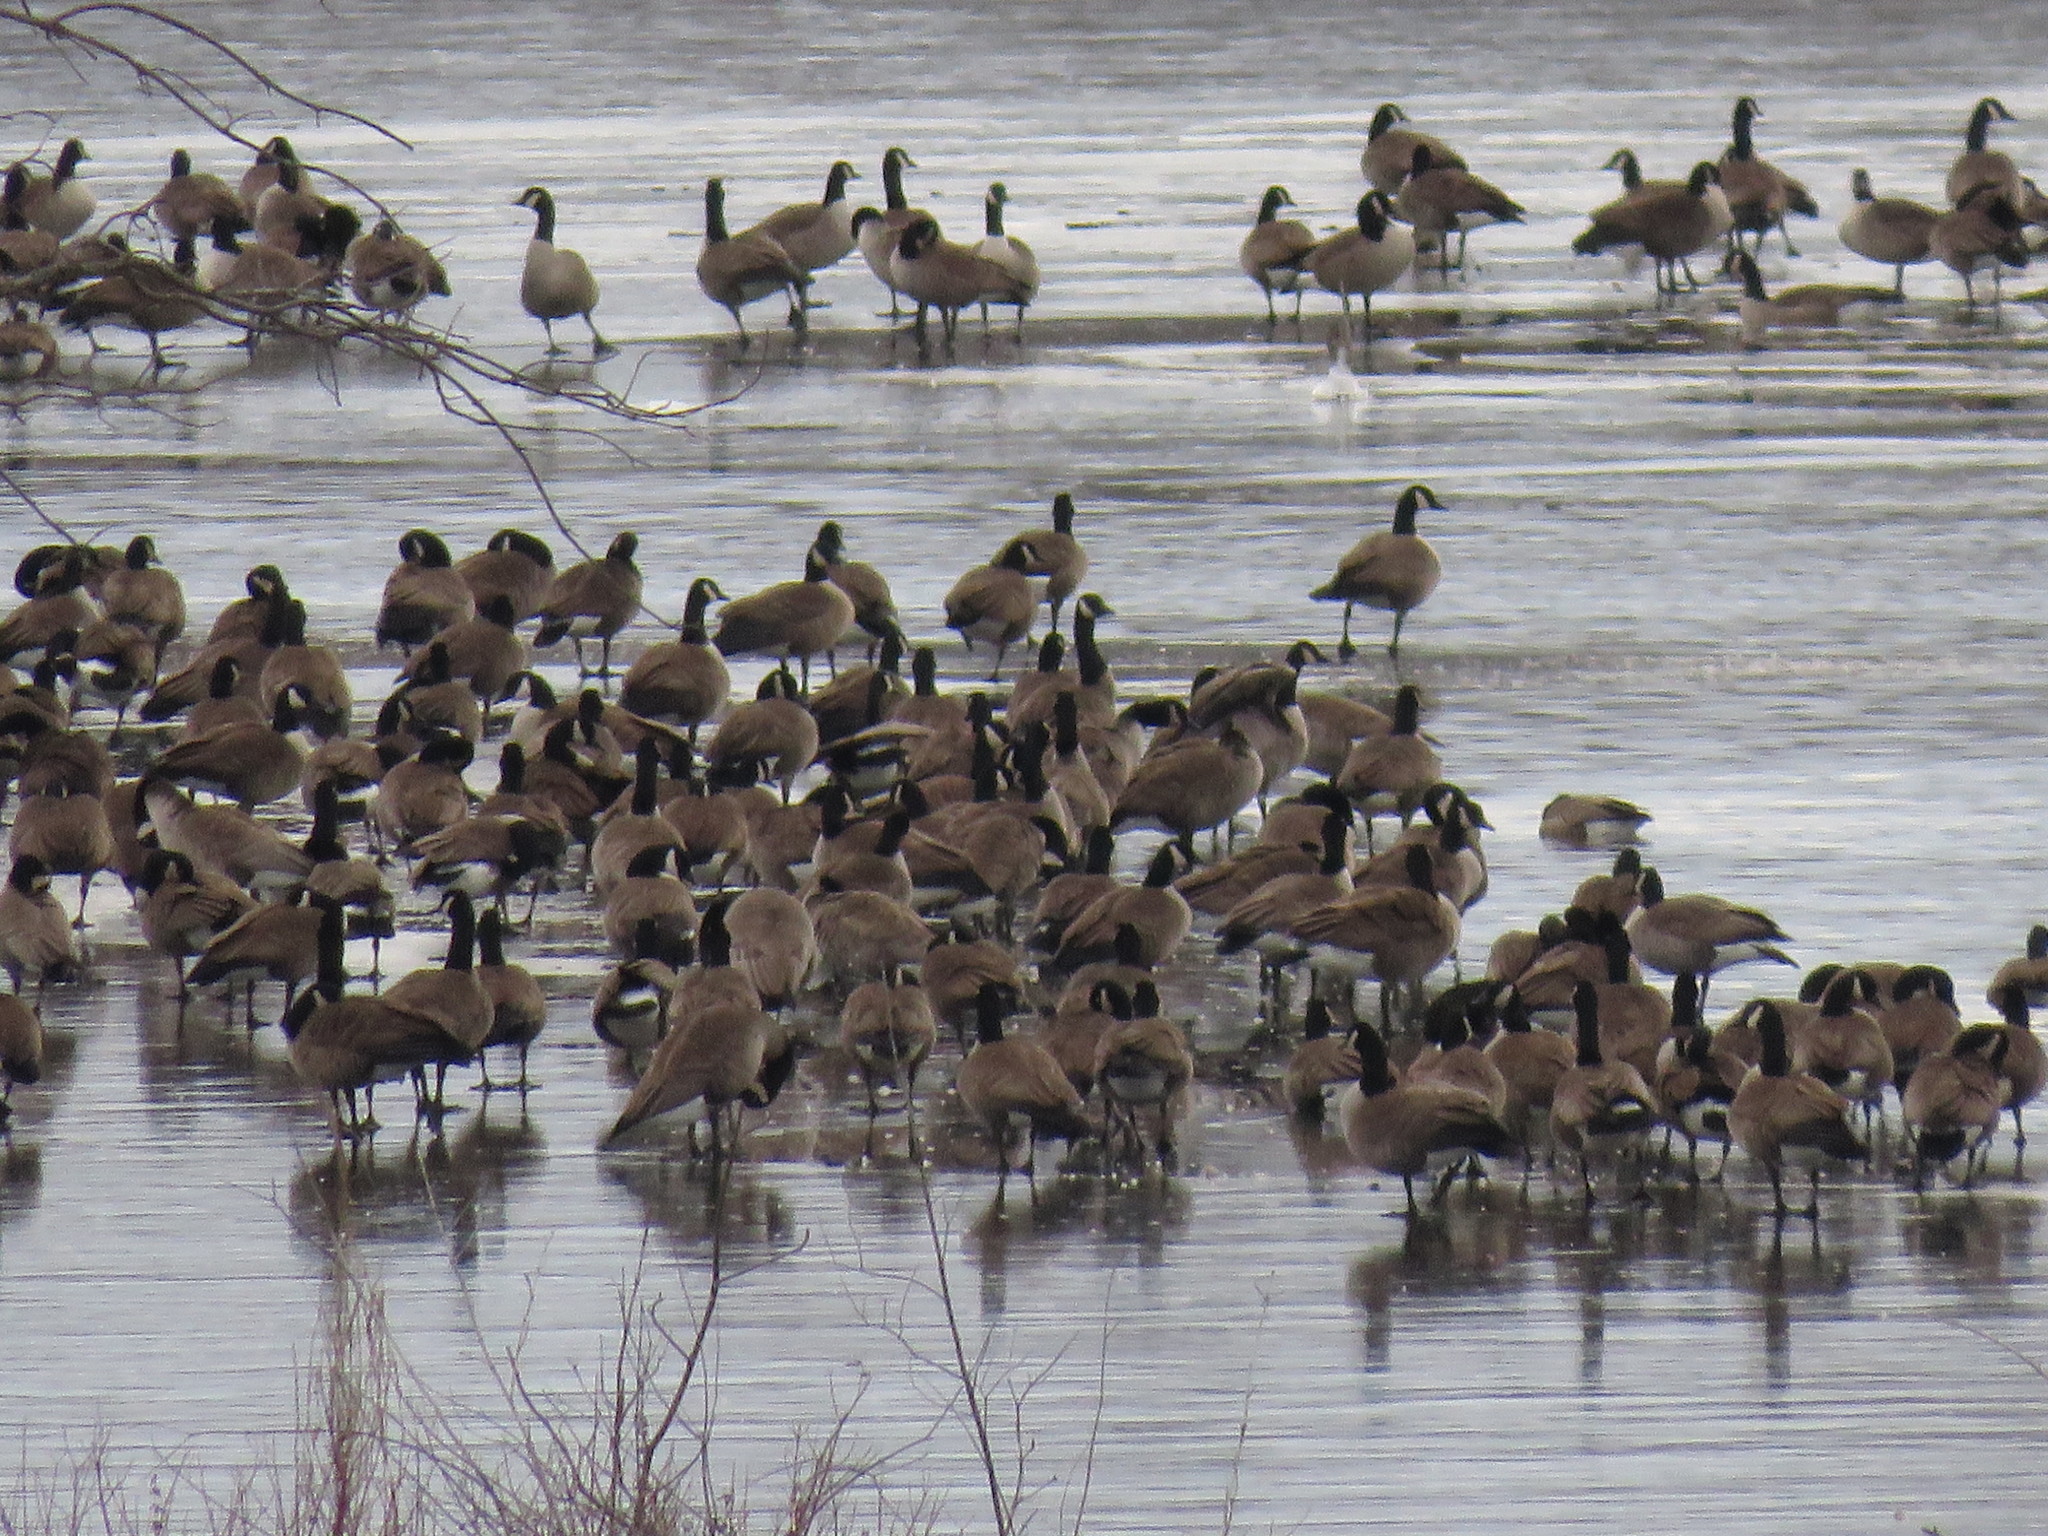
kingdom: Animalia
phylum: Chordata
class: Aves
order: Anseriformes
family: Anatidae
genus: Branta
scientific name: Branta canadensis
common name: Canada goose
